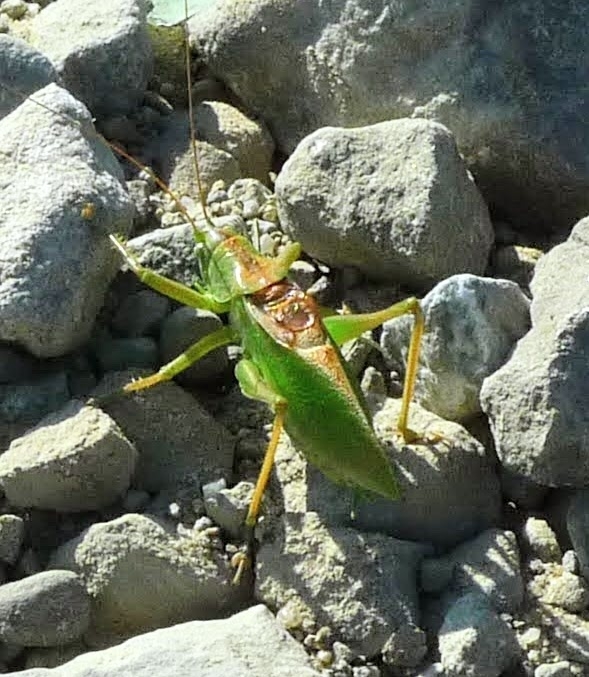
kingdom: Animalia
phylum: Arthropoda
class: Insecta
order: Orthoptera
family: Tettigoniidae
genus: Tettigonia
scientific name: Tettigonia cantans
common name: Upland green bush-cricket
